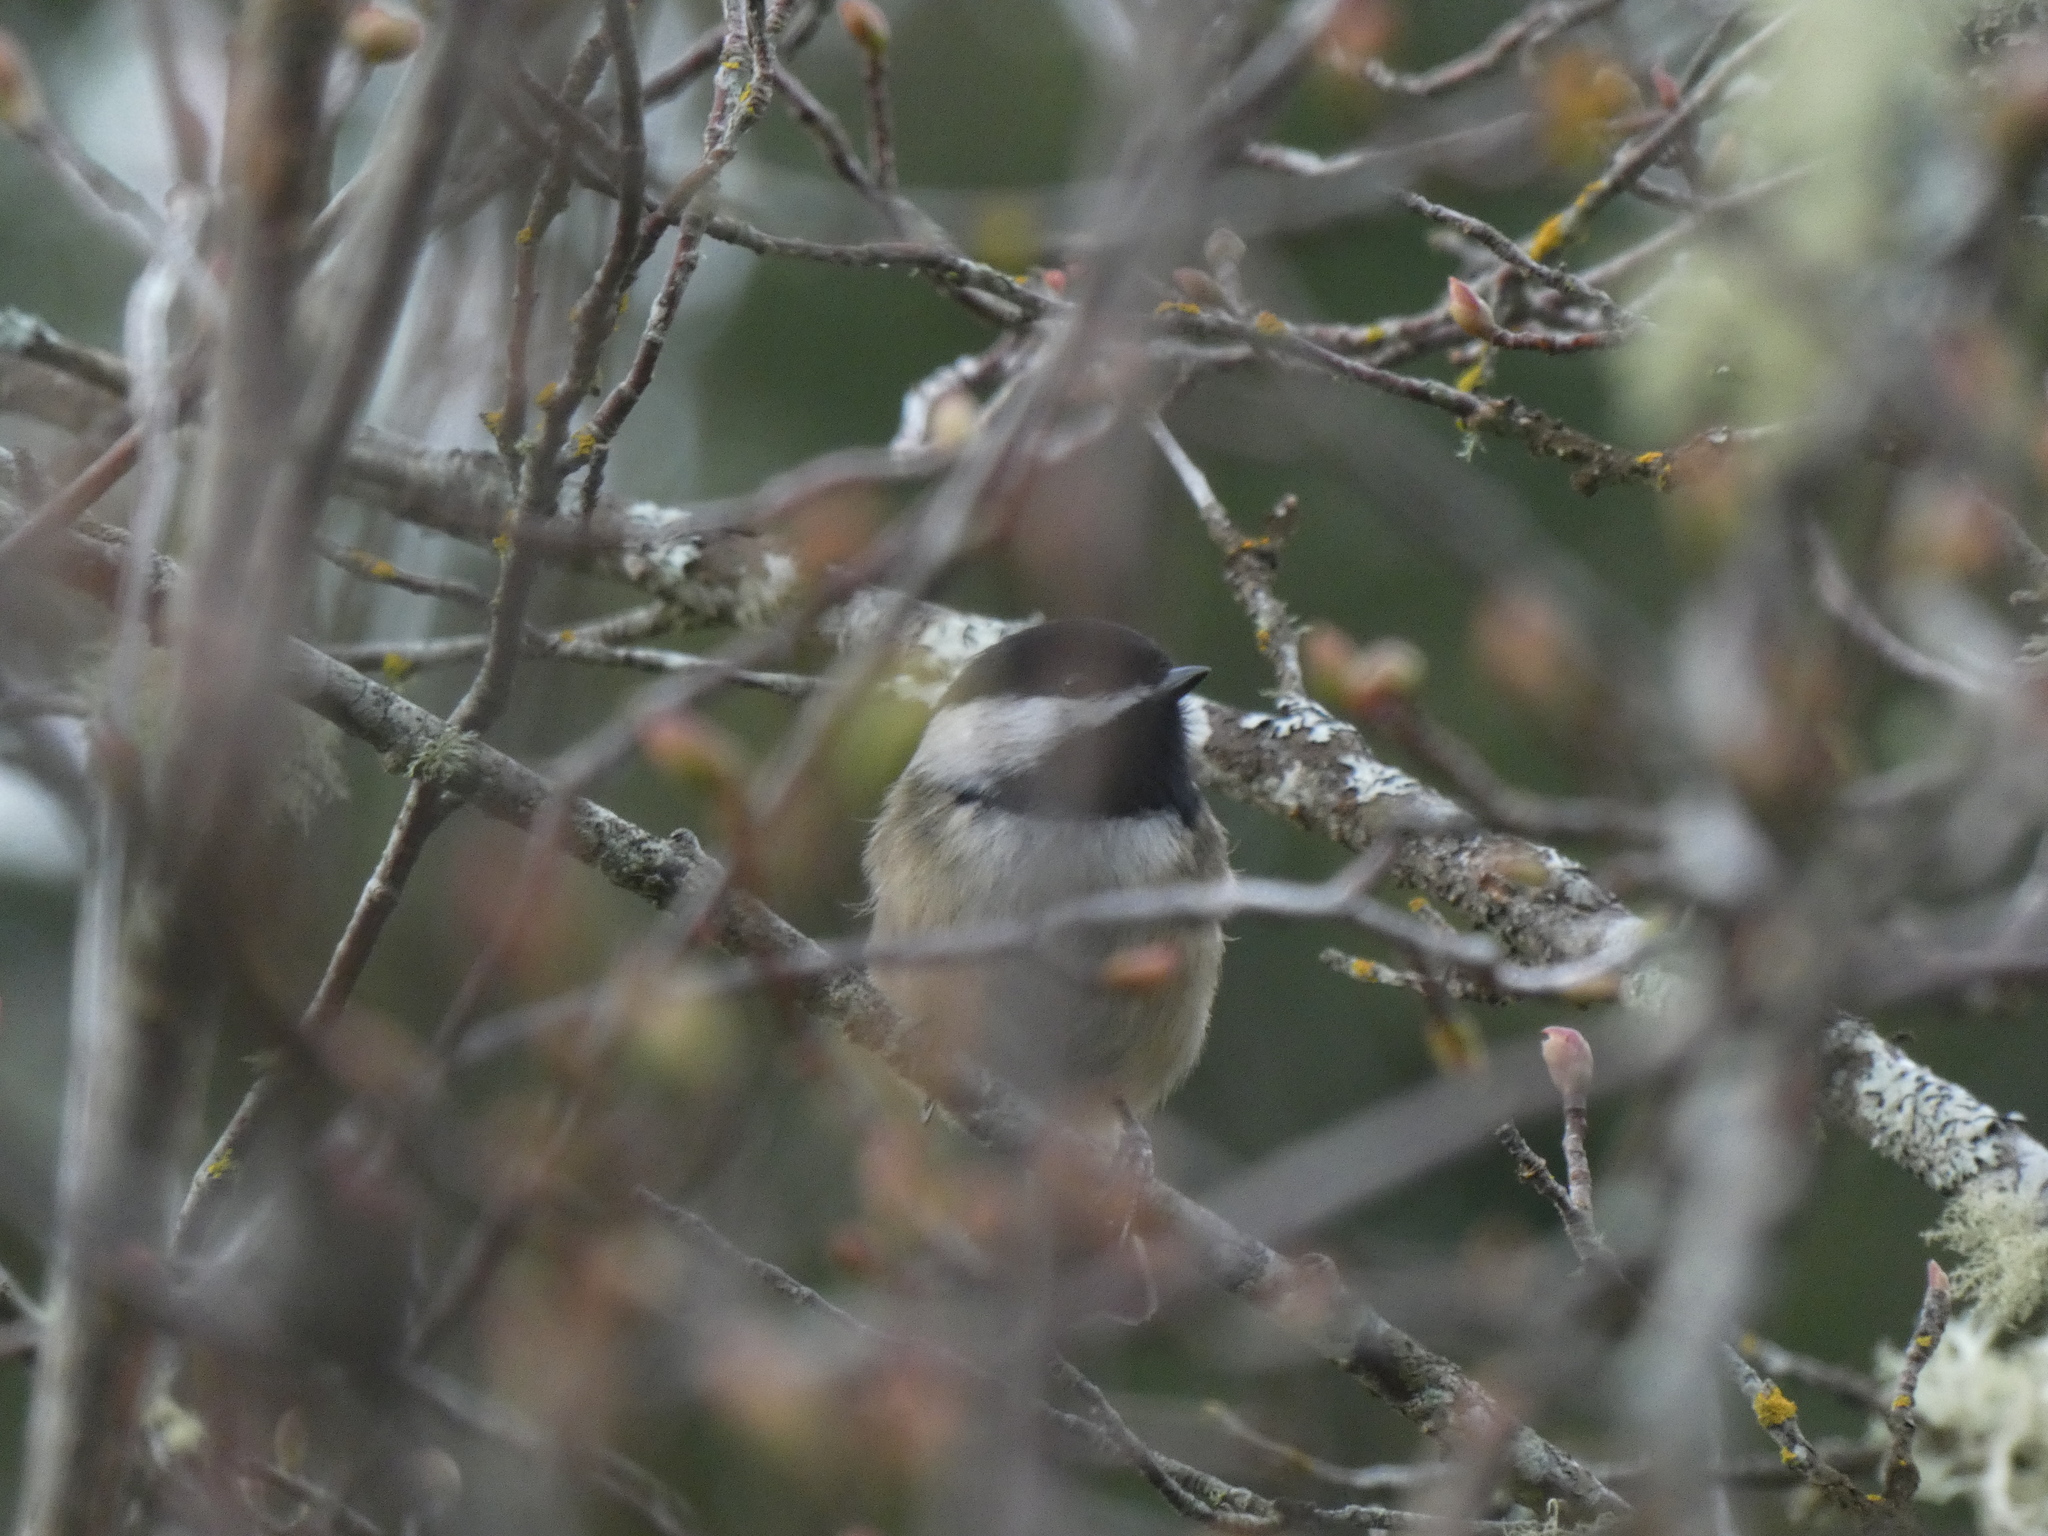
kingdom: Animalia
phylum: Chordata
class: Aves
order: Passeriformes
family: Paridae
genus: Poecile
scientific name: Poecile atricapillus
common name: Black-capped chickadee
